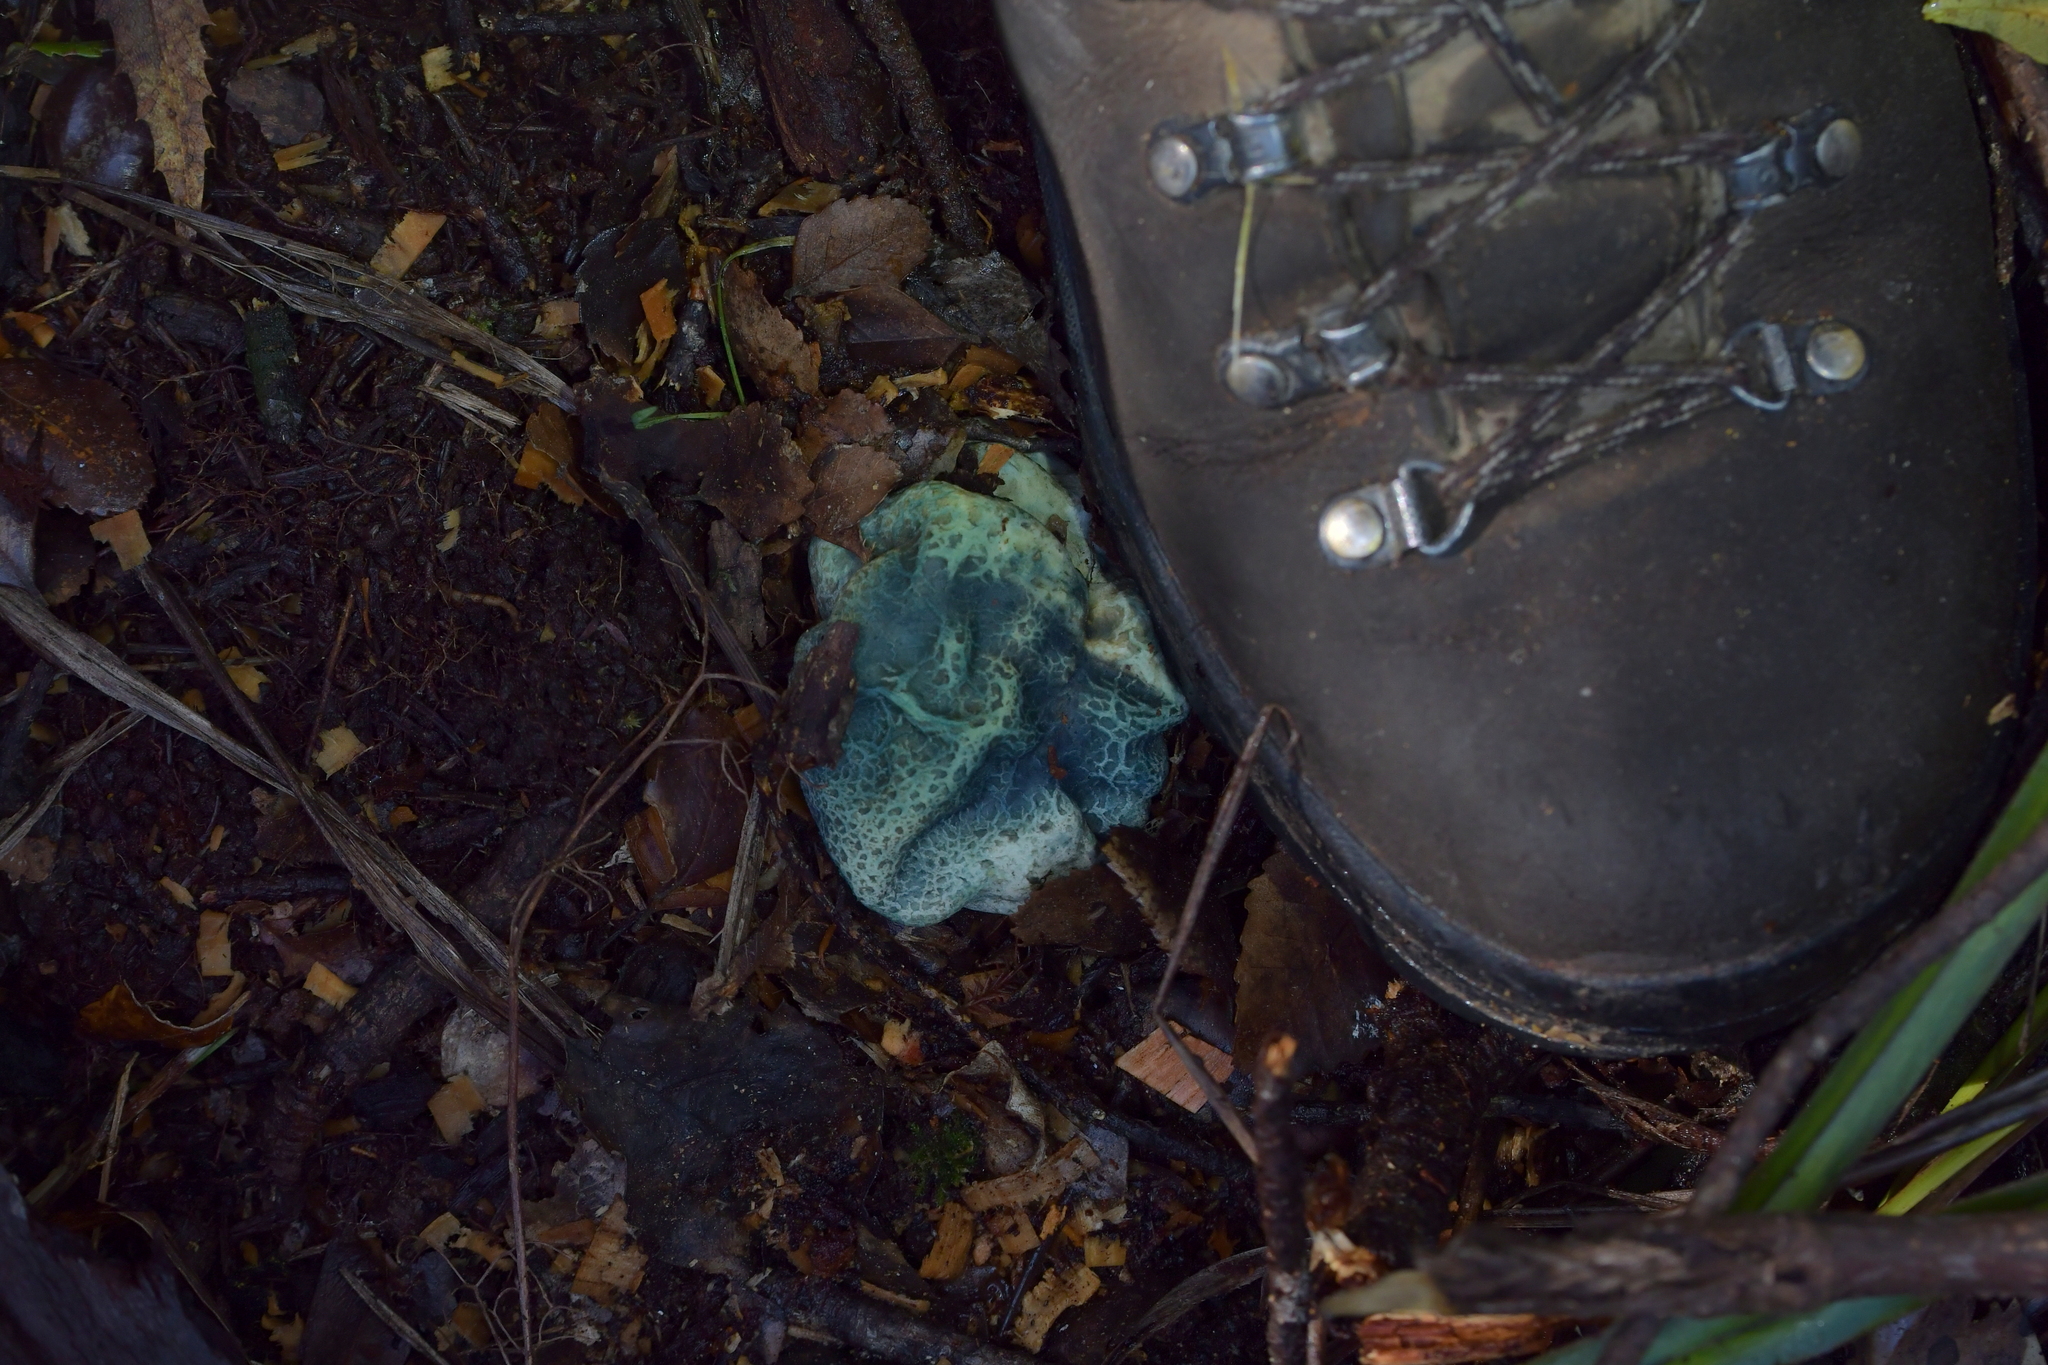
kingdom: Fungi
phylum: Basidiomycota
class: Agaricomycetes
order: Boletales
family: Boletaceae
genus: Leccinum
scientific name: Leccinum pachyderme
